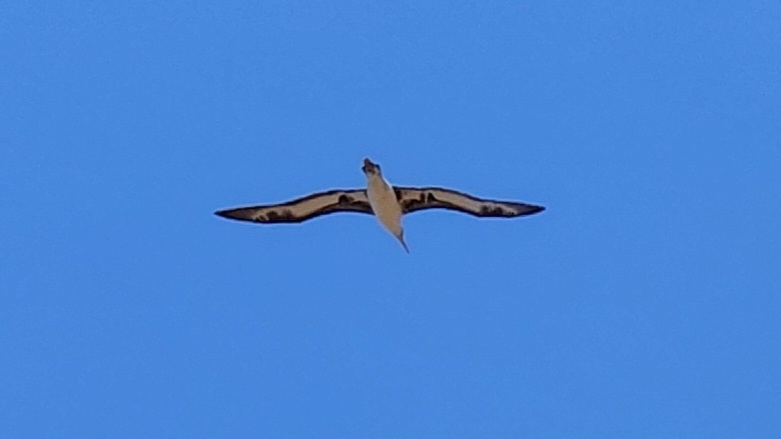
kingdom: Animalia
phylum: Chordata
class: Aves
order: Procellariiformes
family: Diomedeidae
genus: Phoebastria
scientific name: Phoebastria immutabilis
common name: Laysan albatross
